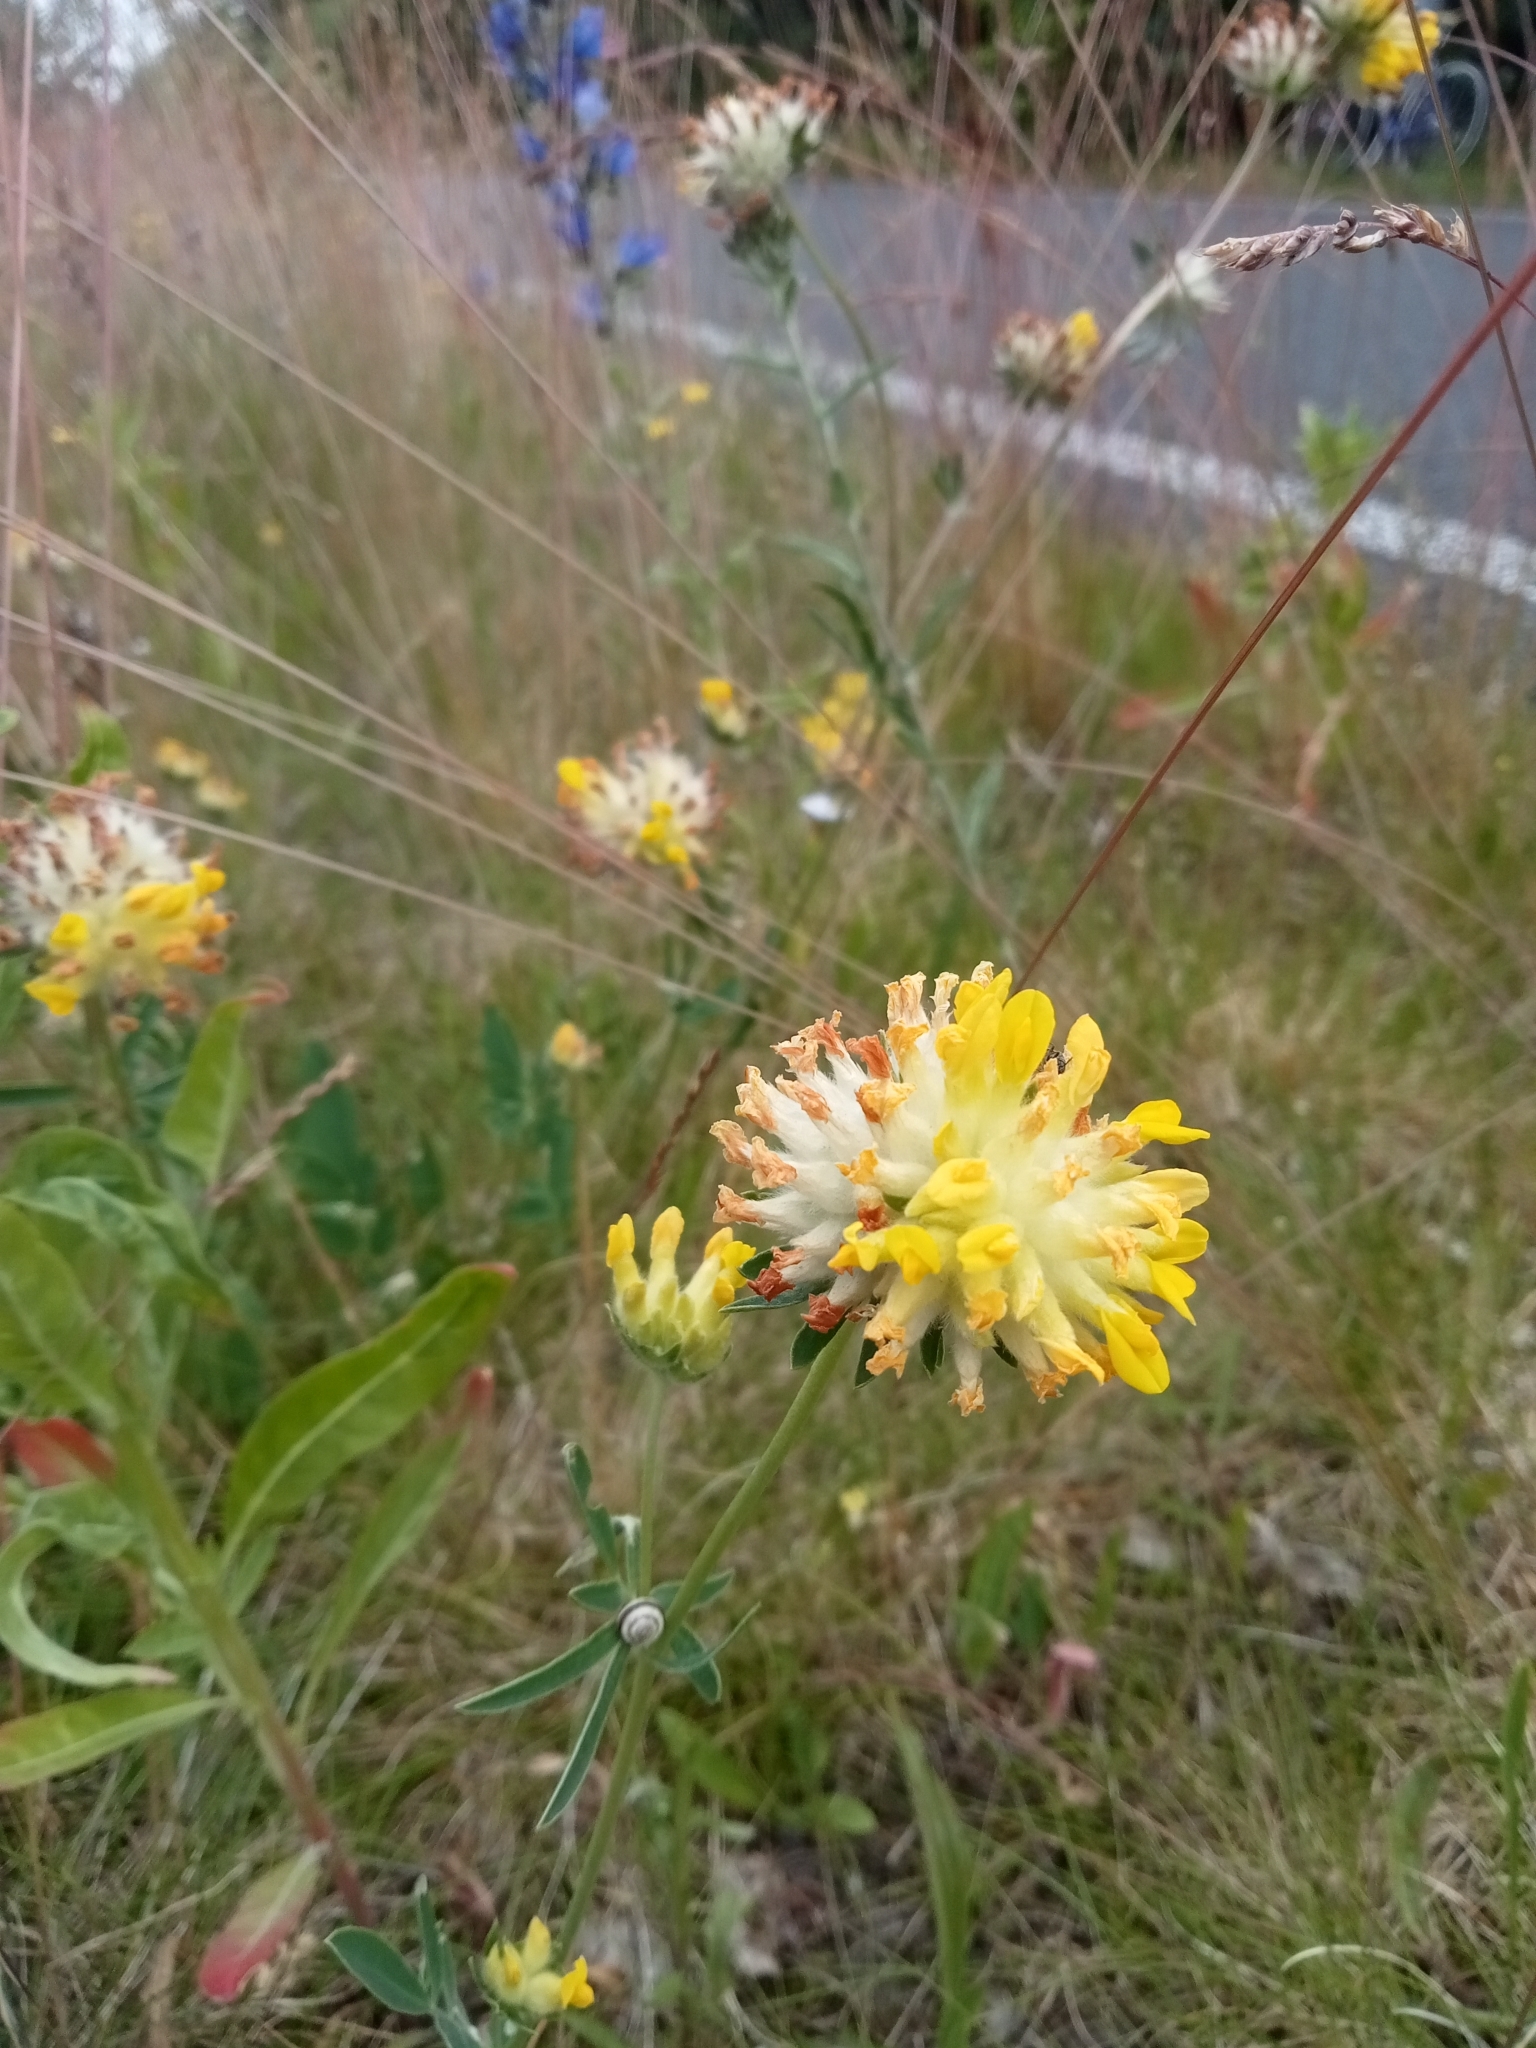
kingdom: Plantae
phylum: Tracheophyta
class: Magnoliopsida
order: Fabales
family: Fabaceae
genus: Anthyllis
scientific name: Anthyllis vulneraria
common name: Kidney vetch
